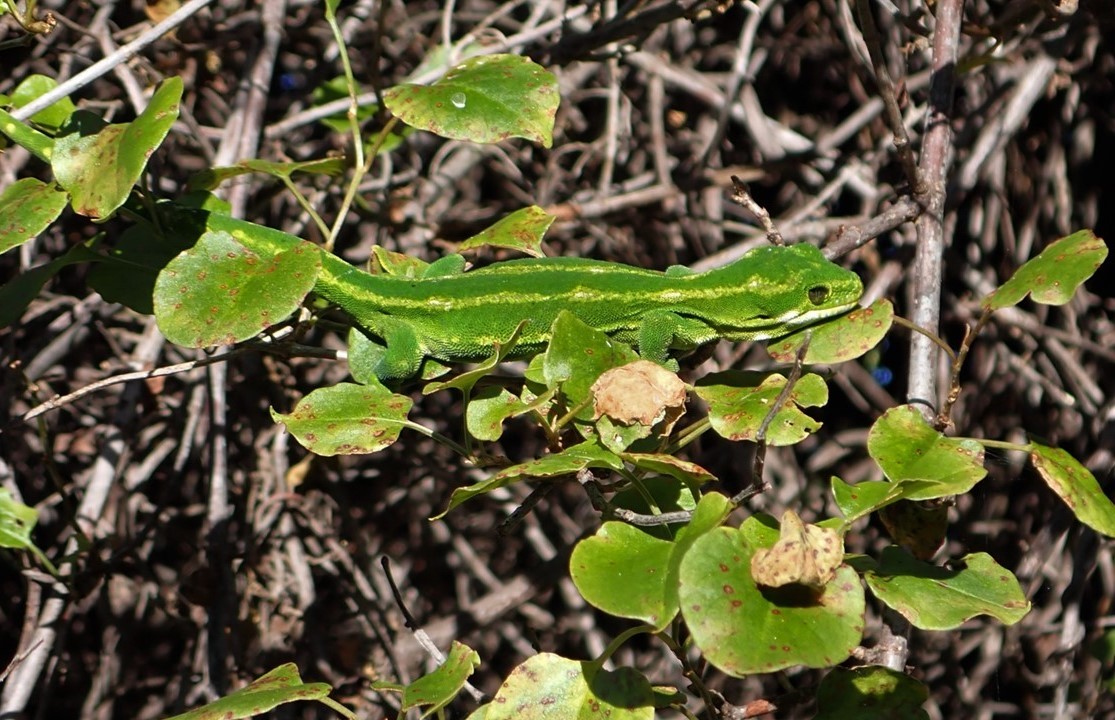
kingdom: Animalia
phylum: Chordata
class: Squamata
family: Diplodactylidae
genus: Naultinus
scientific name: Naultinus gemmeus
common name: Jewelled gecko
